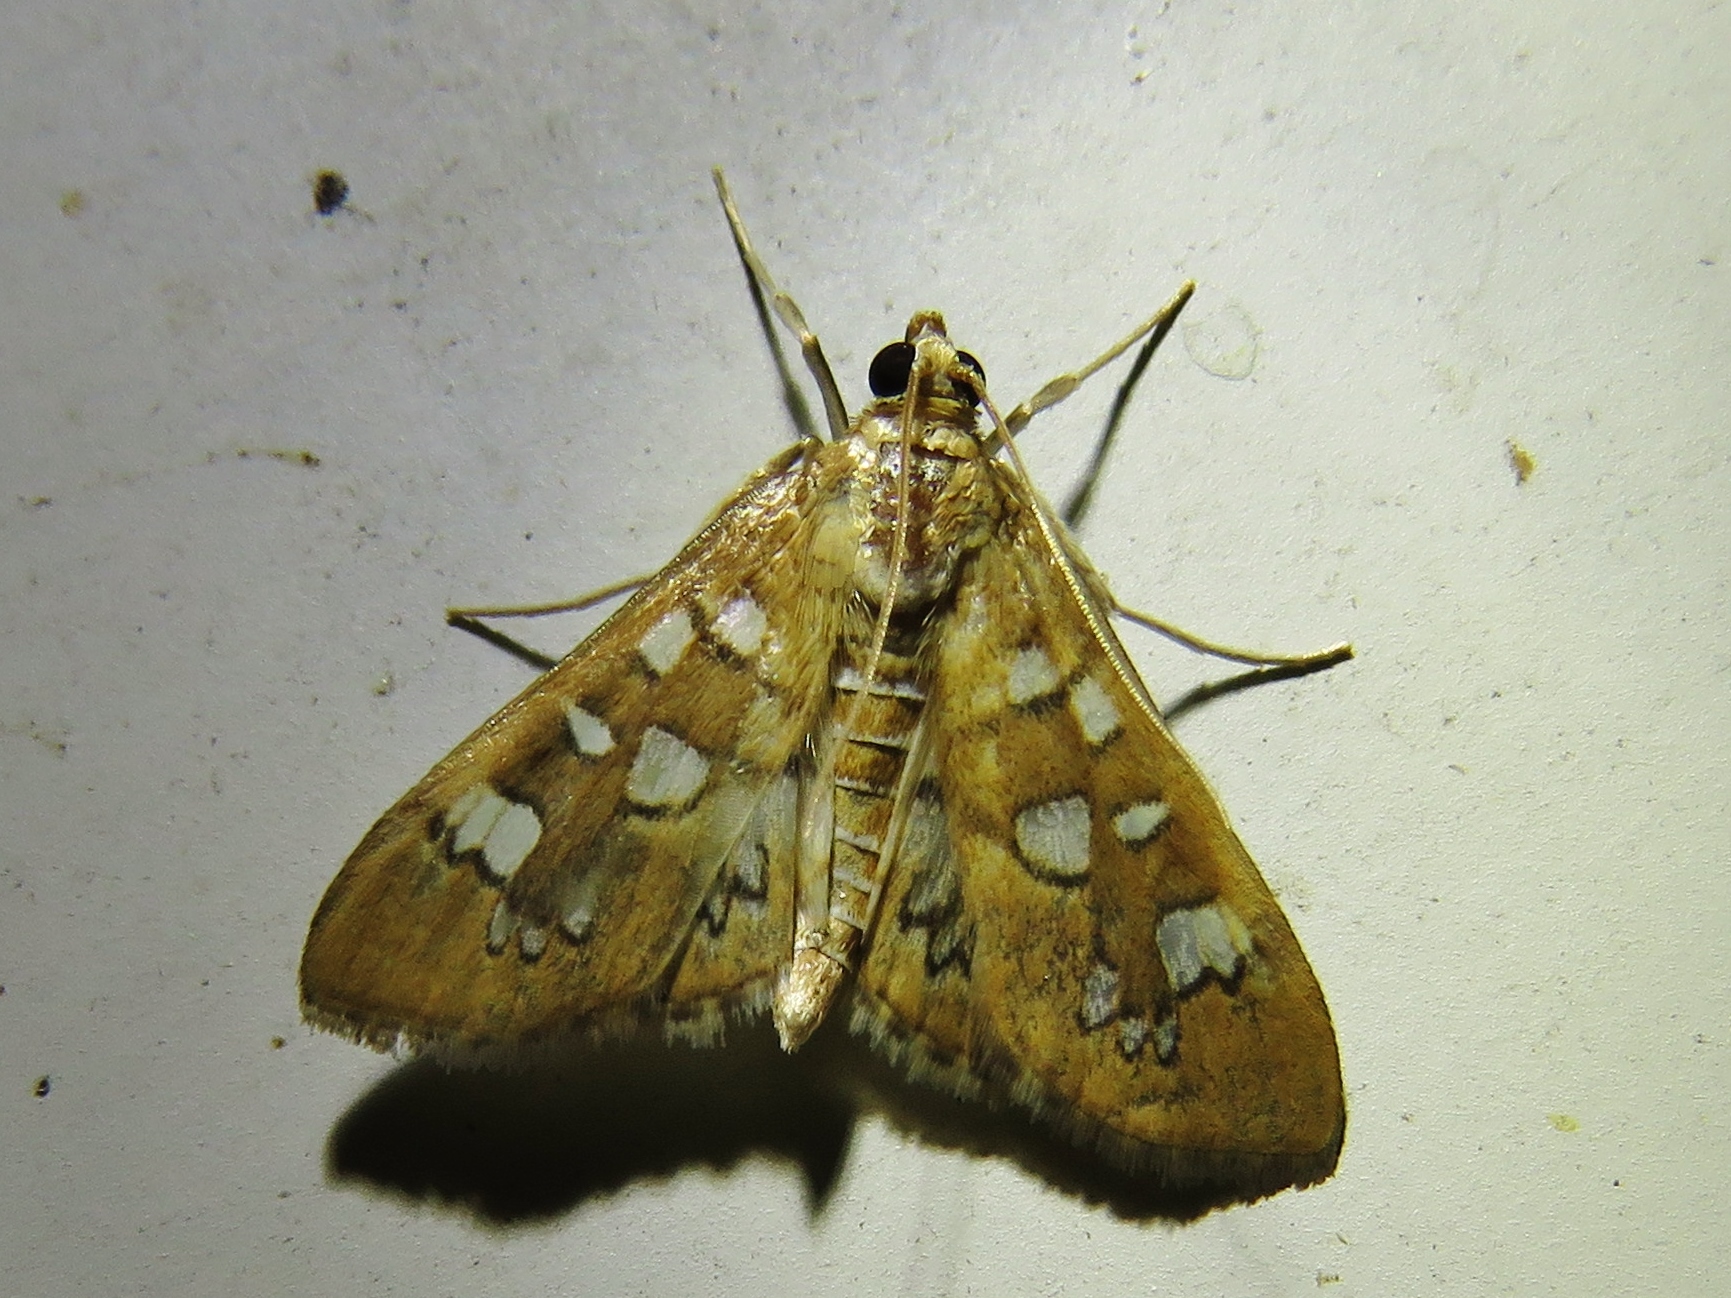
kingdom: Animalia
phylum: Arthropoda
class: Insecta
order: Lepidoptera
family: Crambidae
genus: Samea
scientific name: Samea baccatalis
